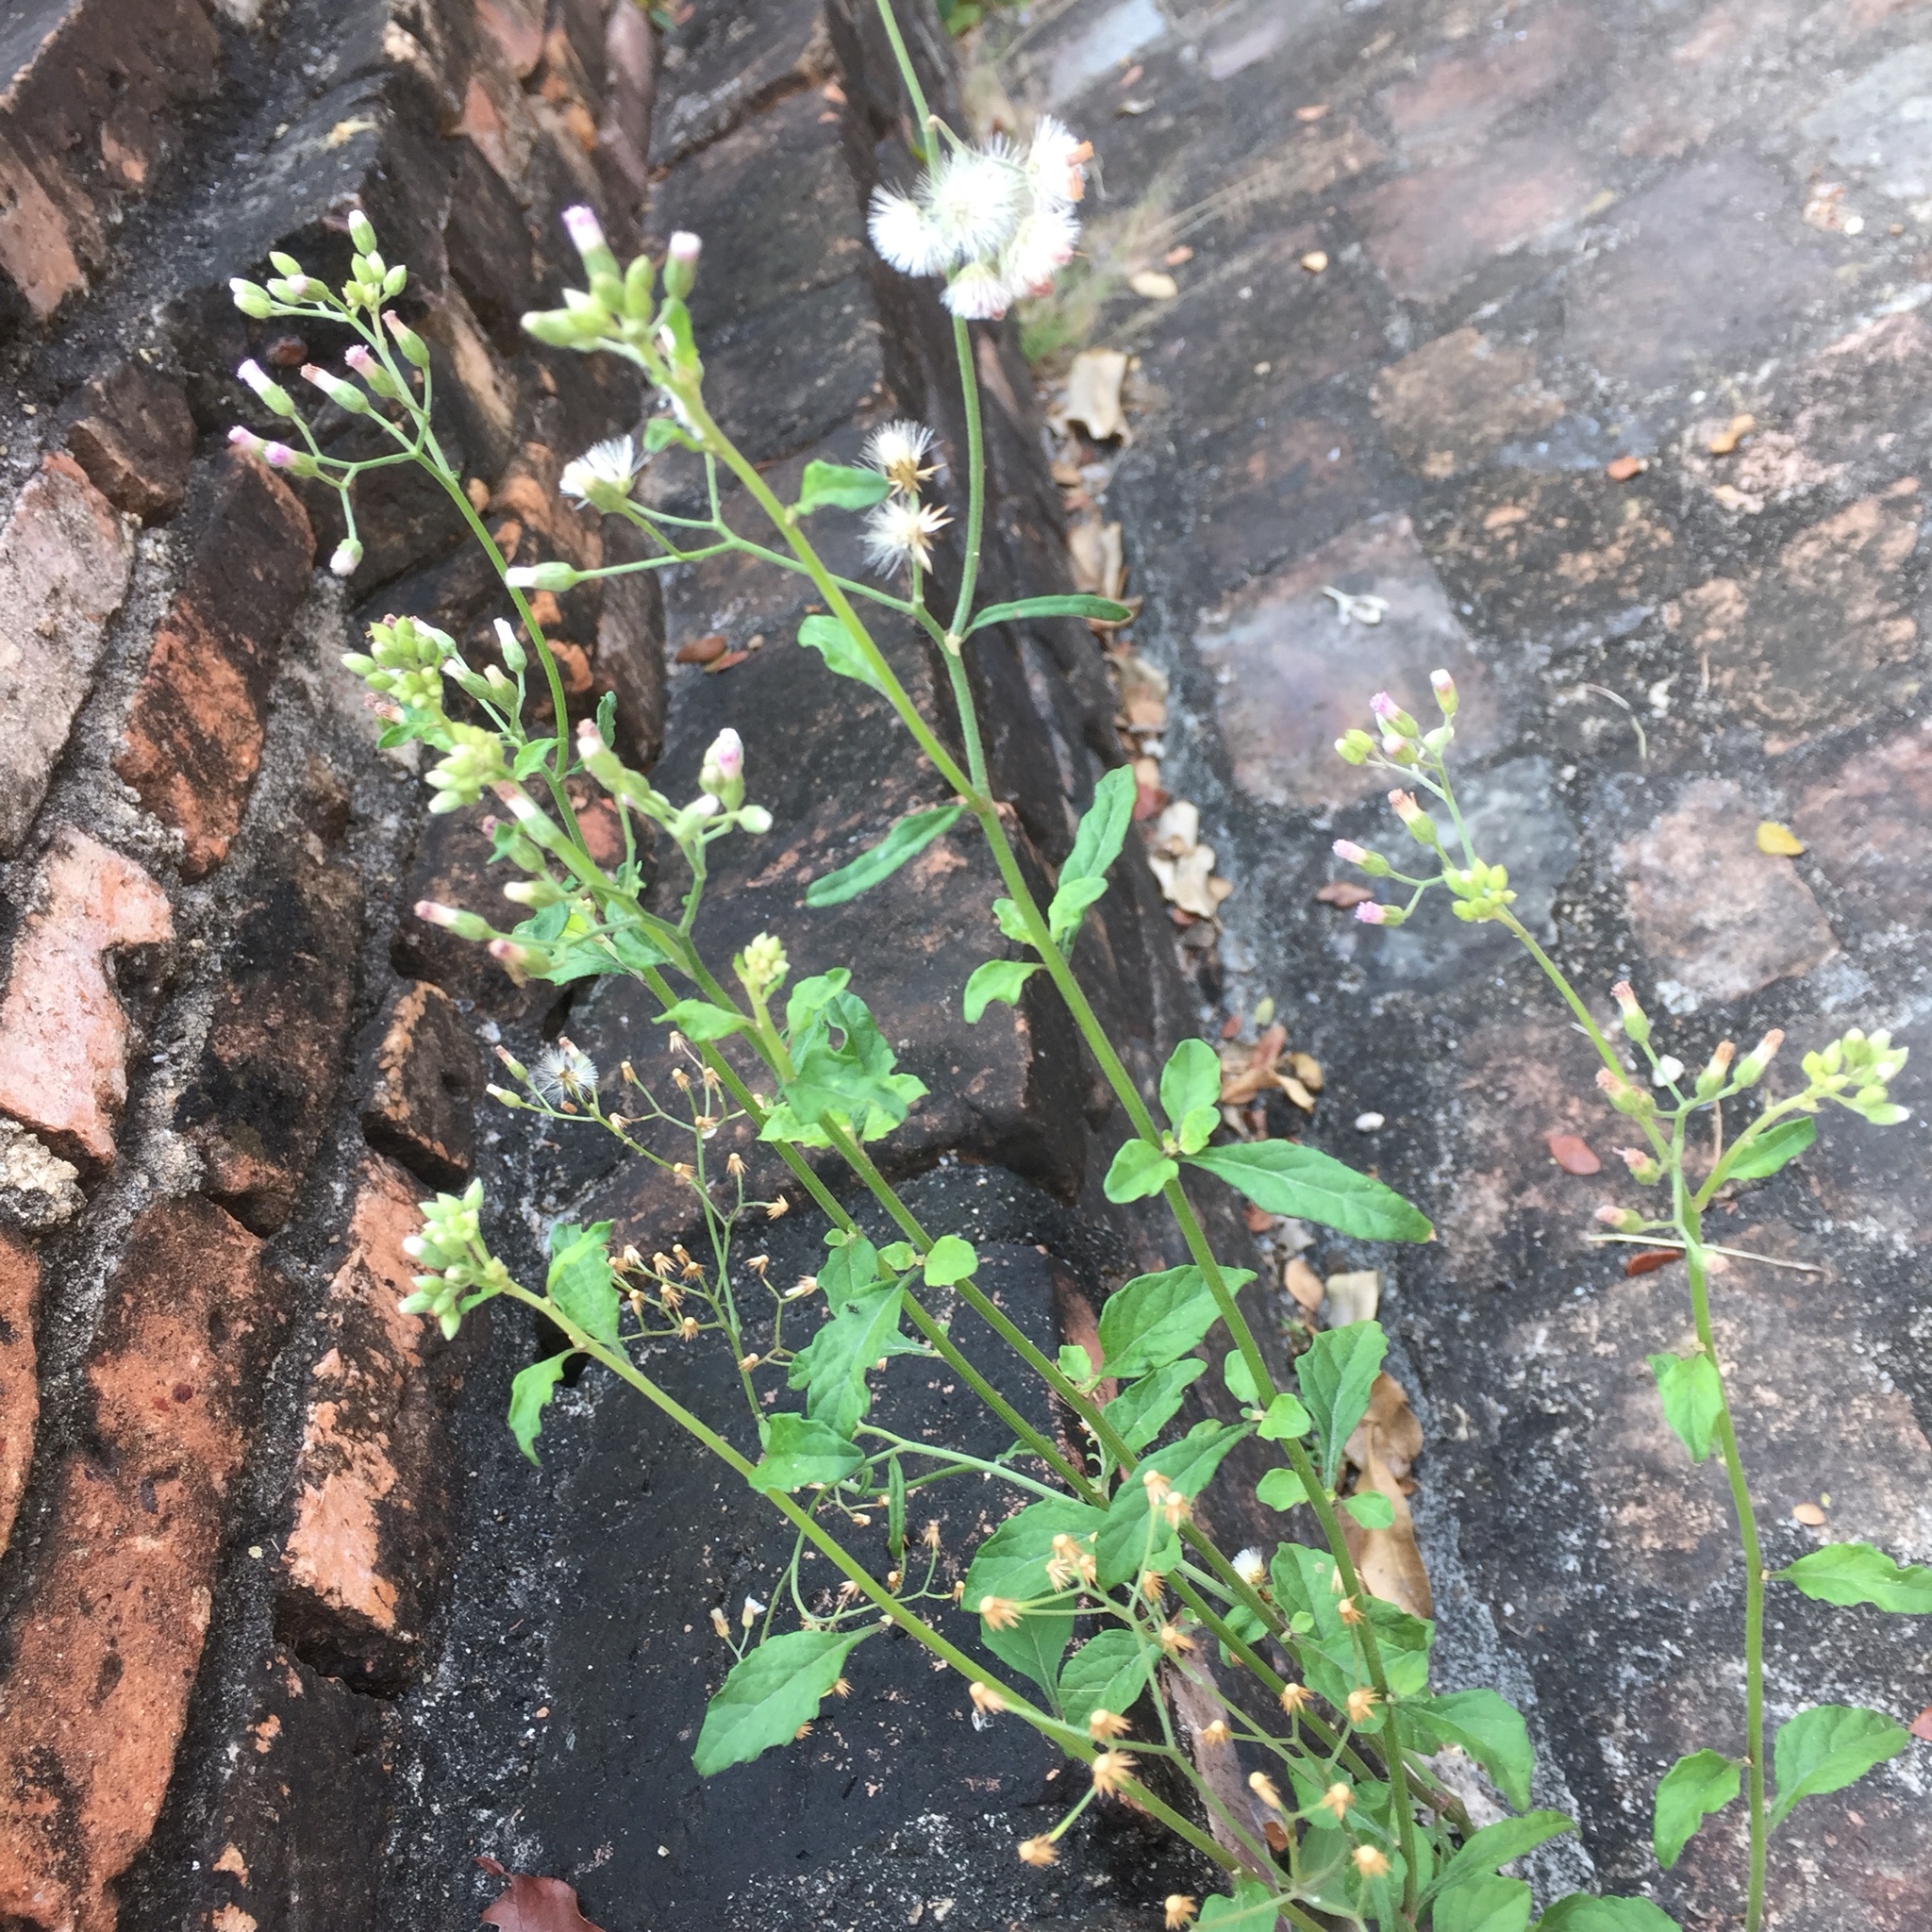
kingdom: Plantae
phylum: Tracheophyta
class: Magnoliopsida
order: Asterales
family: Asteraceae
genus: Cyanthillium
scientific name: Cyanthillium cinereum
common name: Little ironweed
